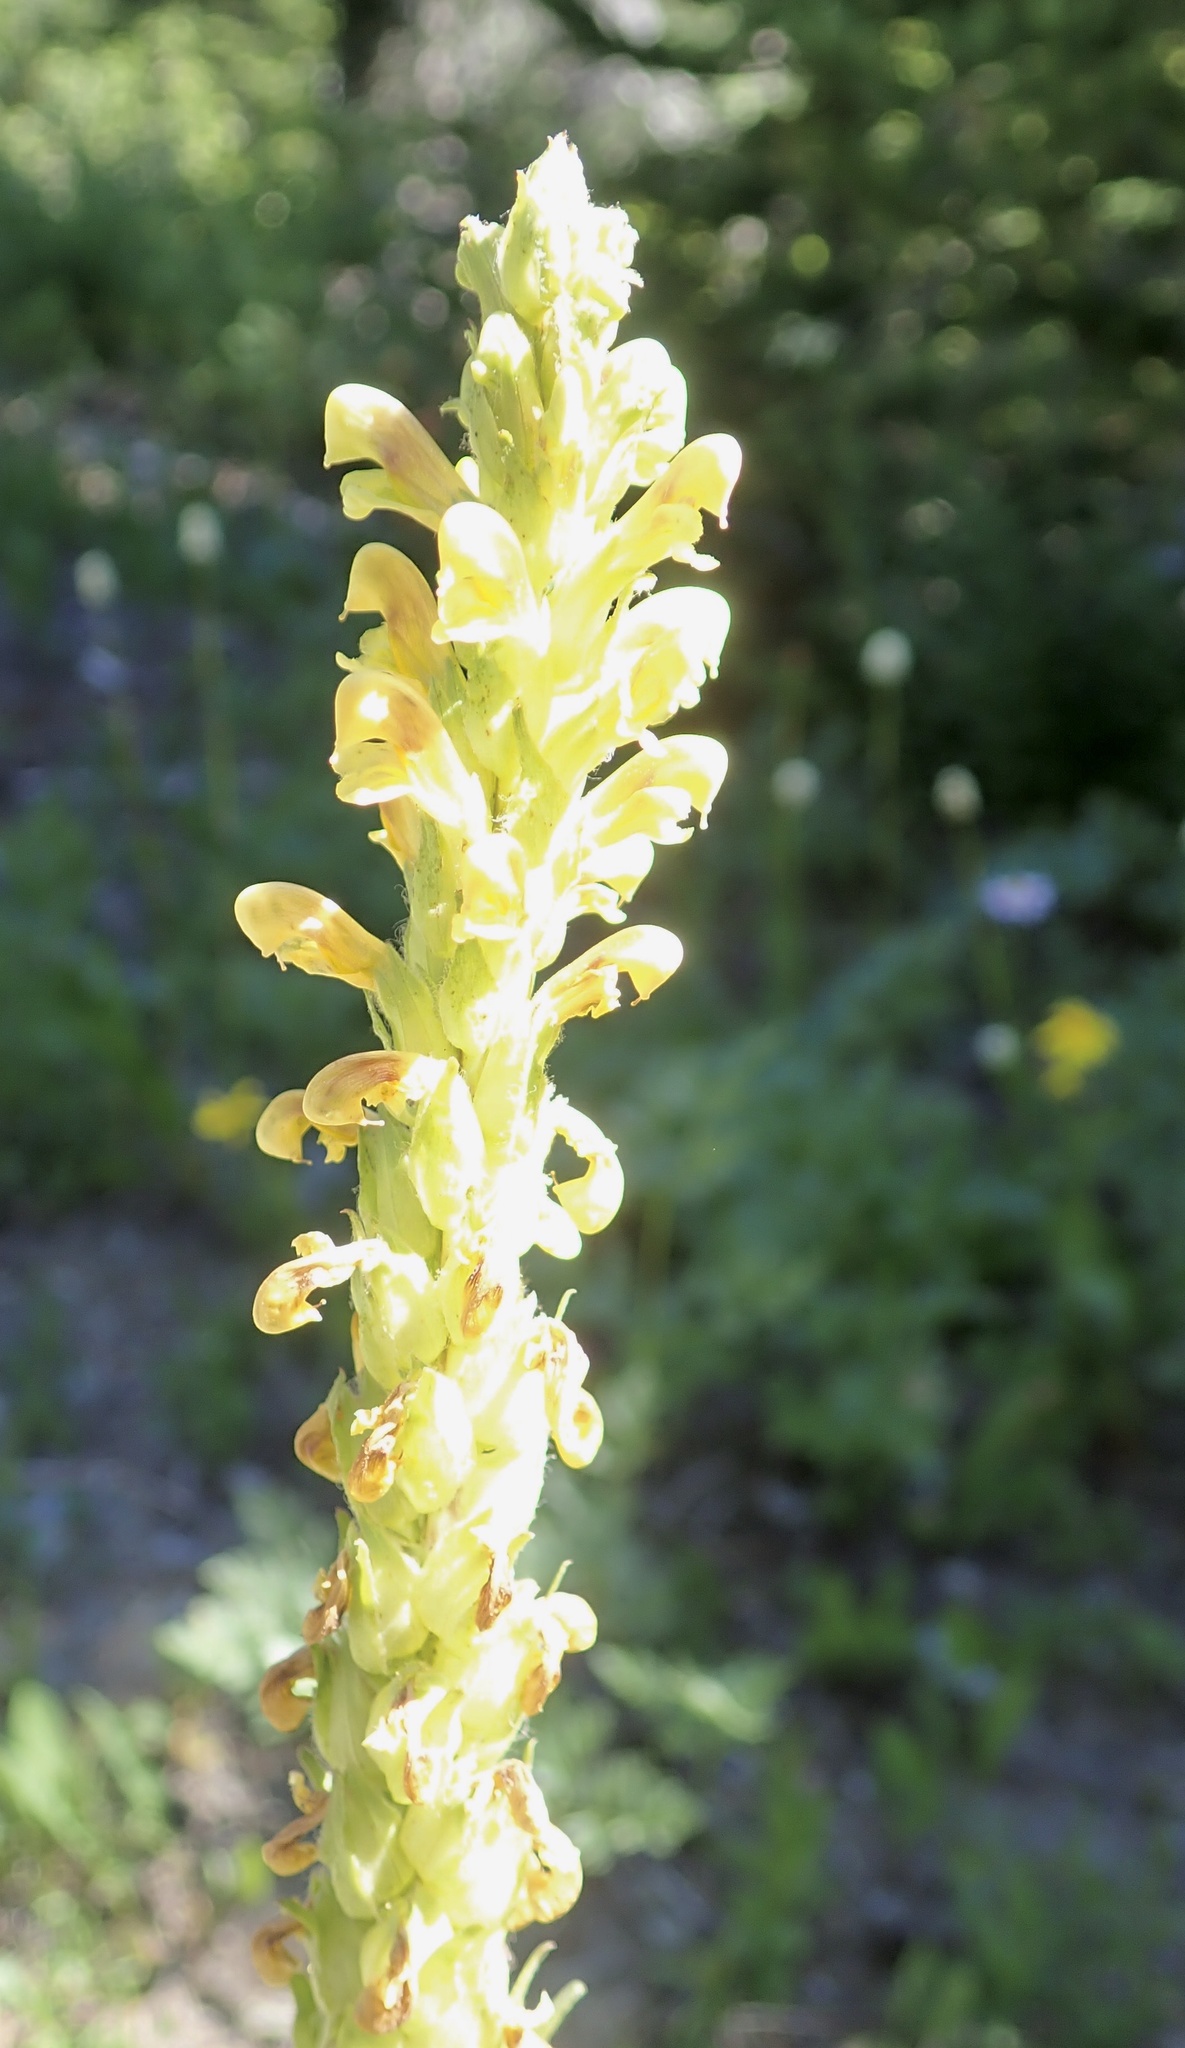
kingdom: Plantae
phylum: Tracheophyta
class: Magnoliopsida
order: Lamiales
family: Orobanchaceae
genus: Pedicularis
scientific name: Pedicularis bracteosa
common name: Bracted lousewort
